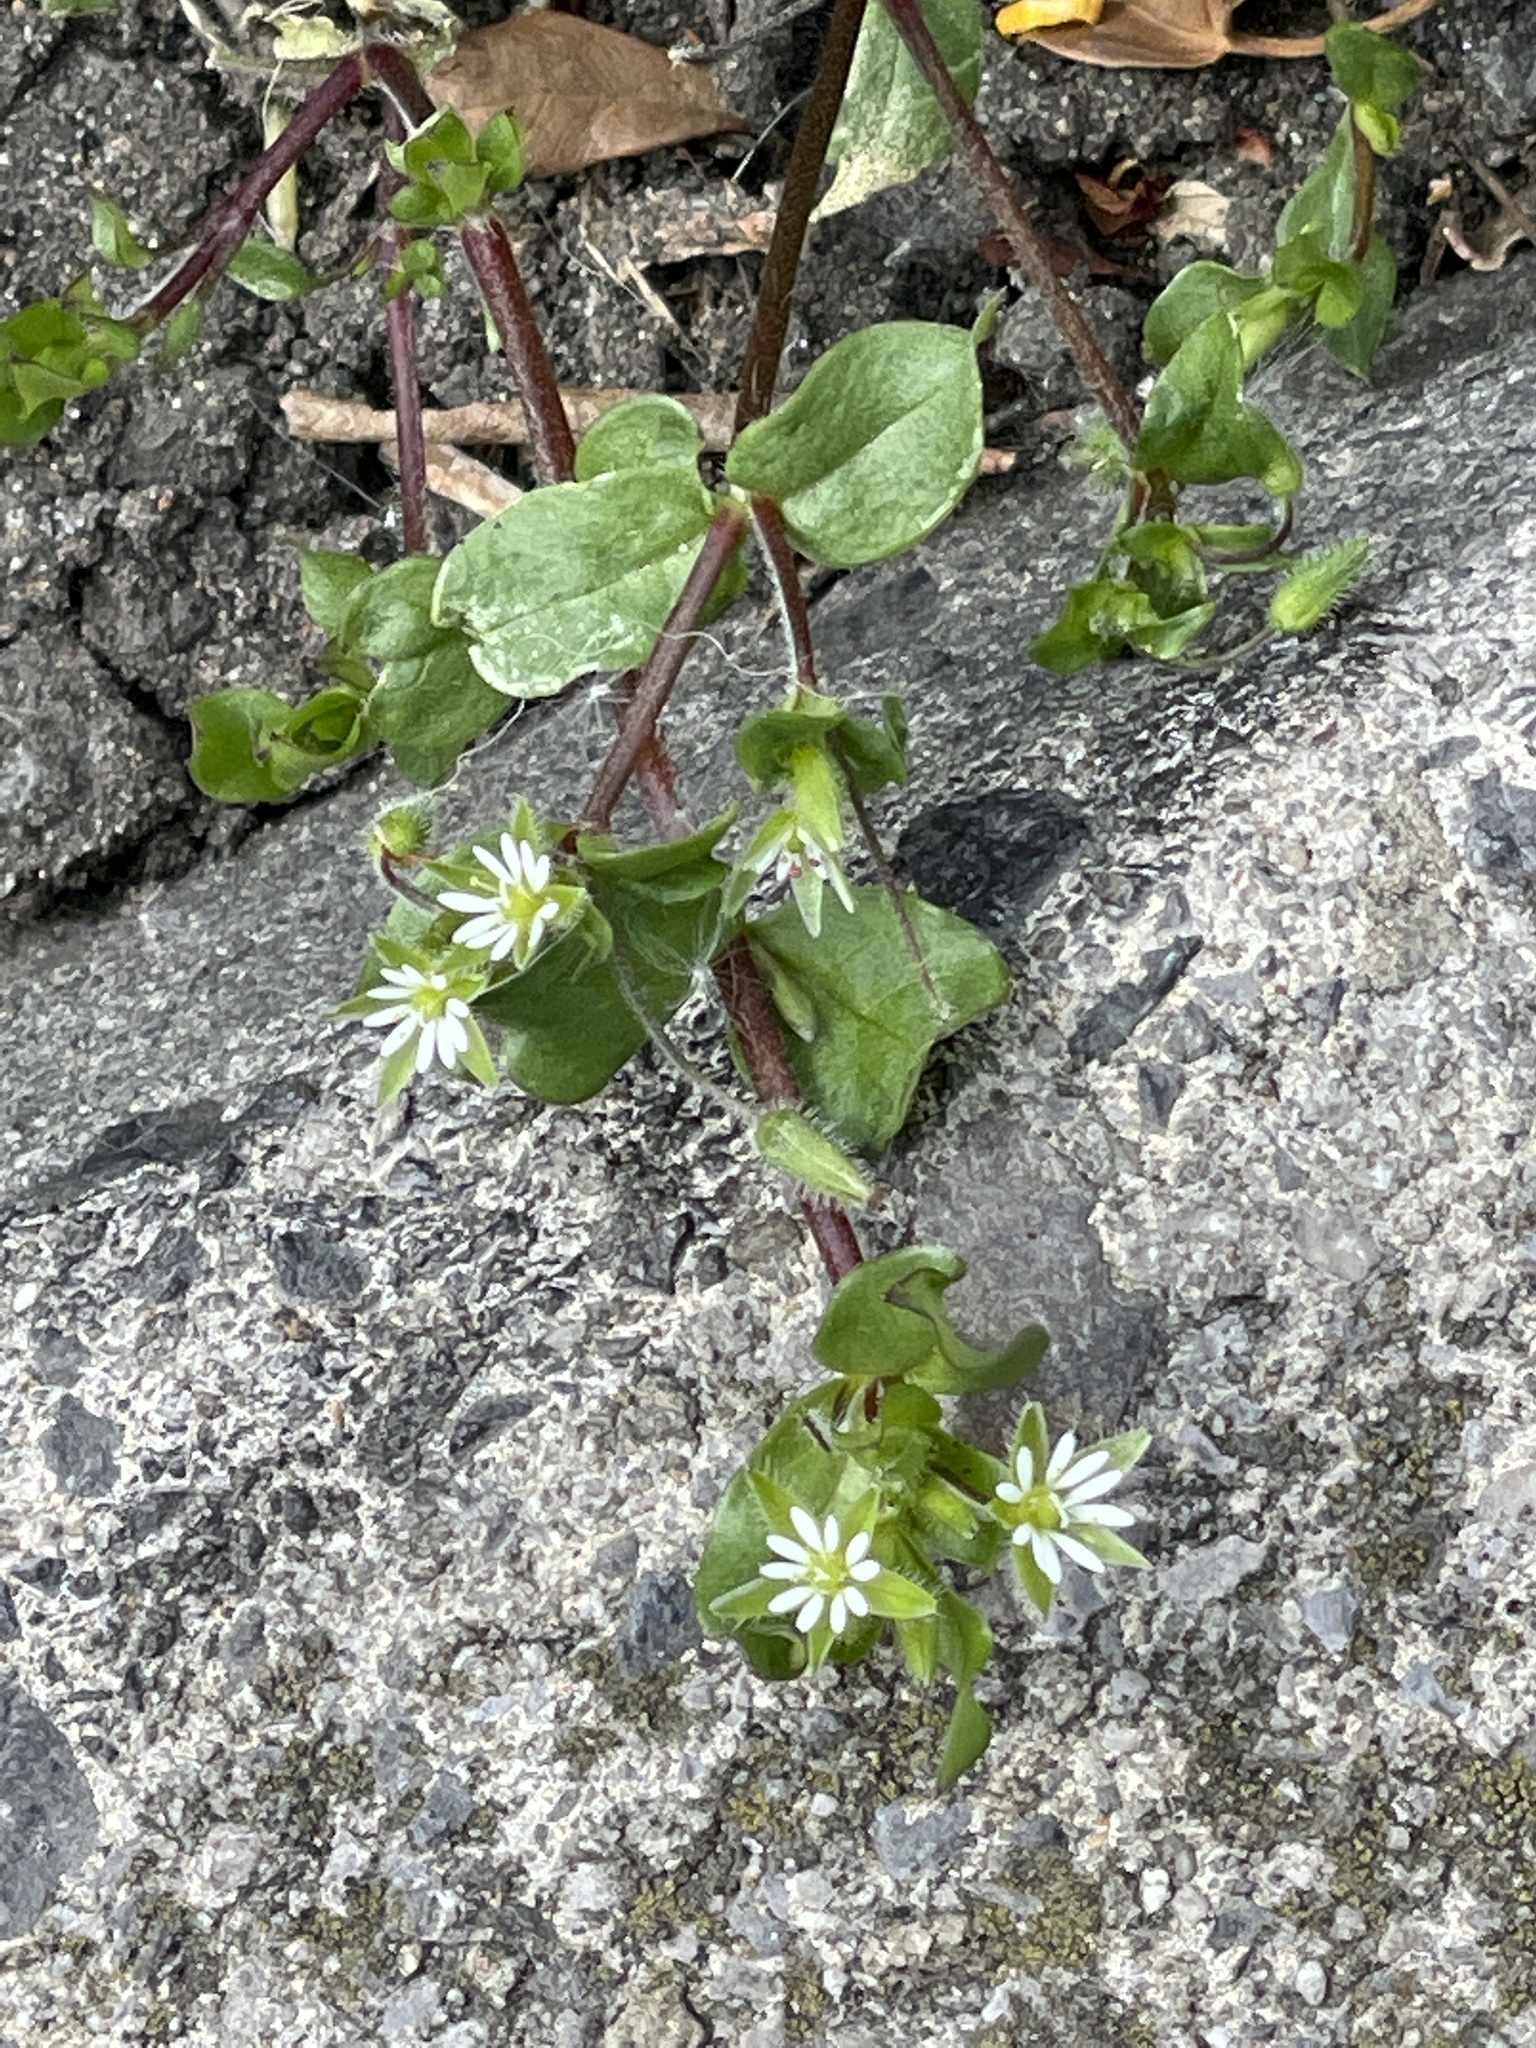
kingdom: Plantae
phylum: Tracheophyta
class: Magnoliopsida
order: Caryophyllales
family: Caryophyllaceae
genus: Stellaria
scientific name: Stellaria media
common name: Common chickweed
